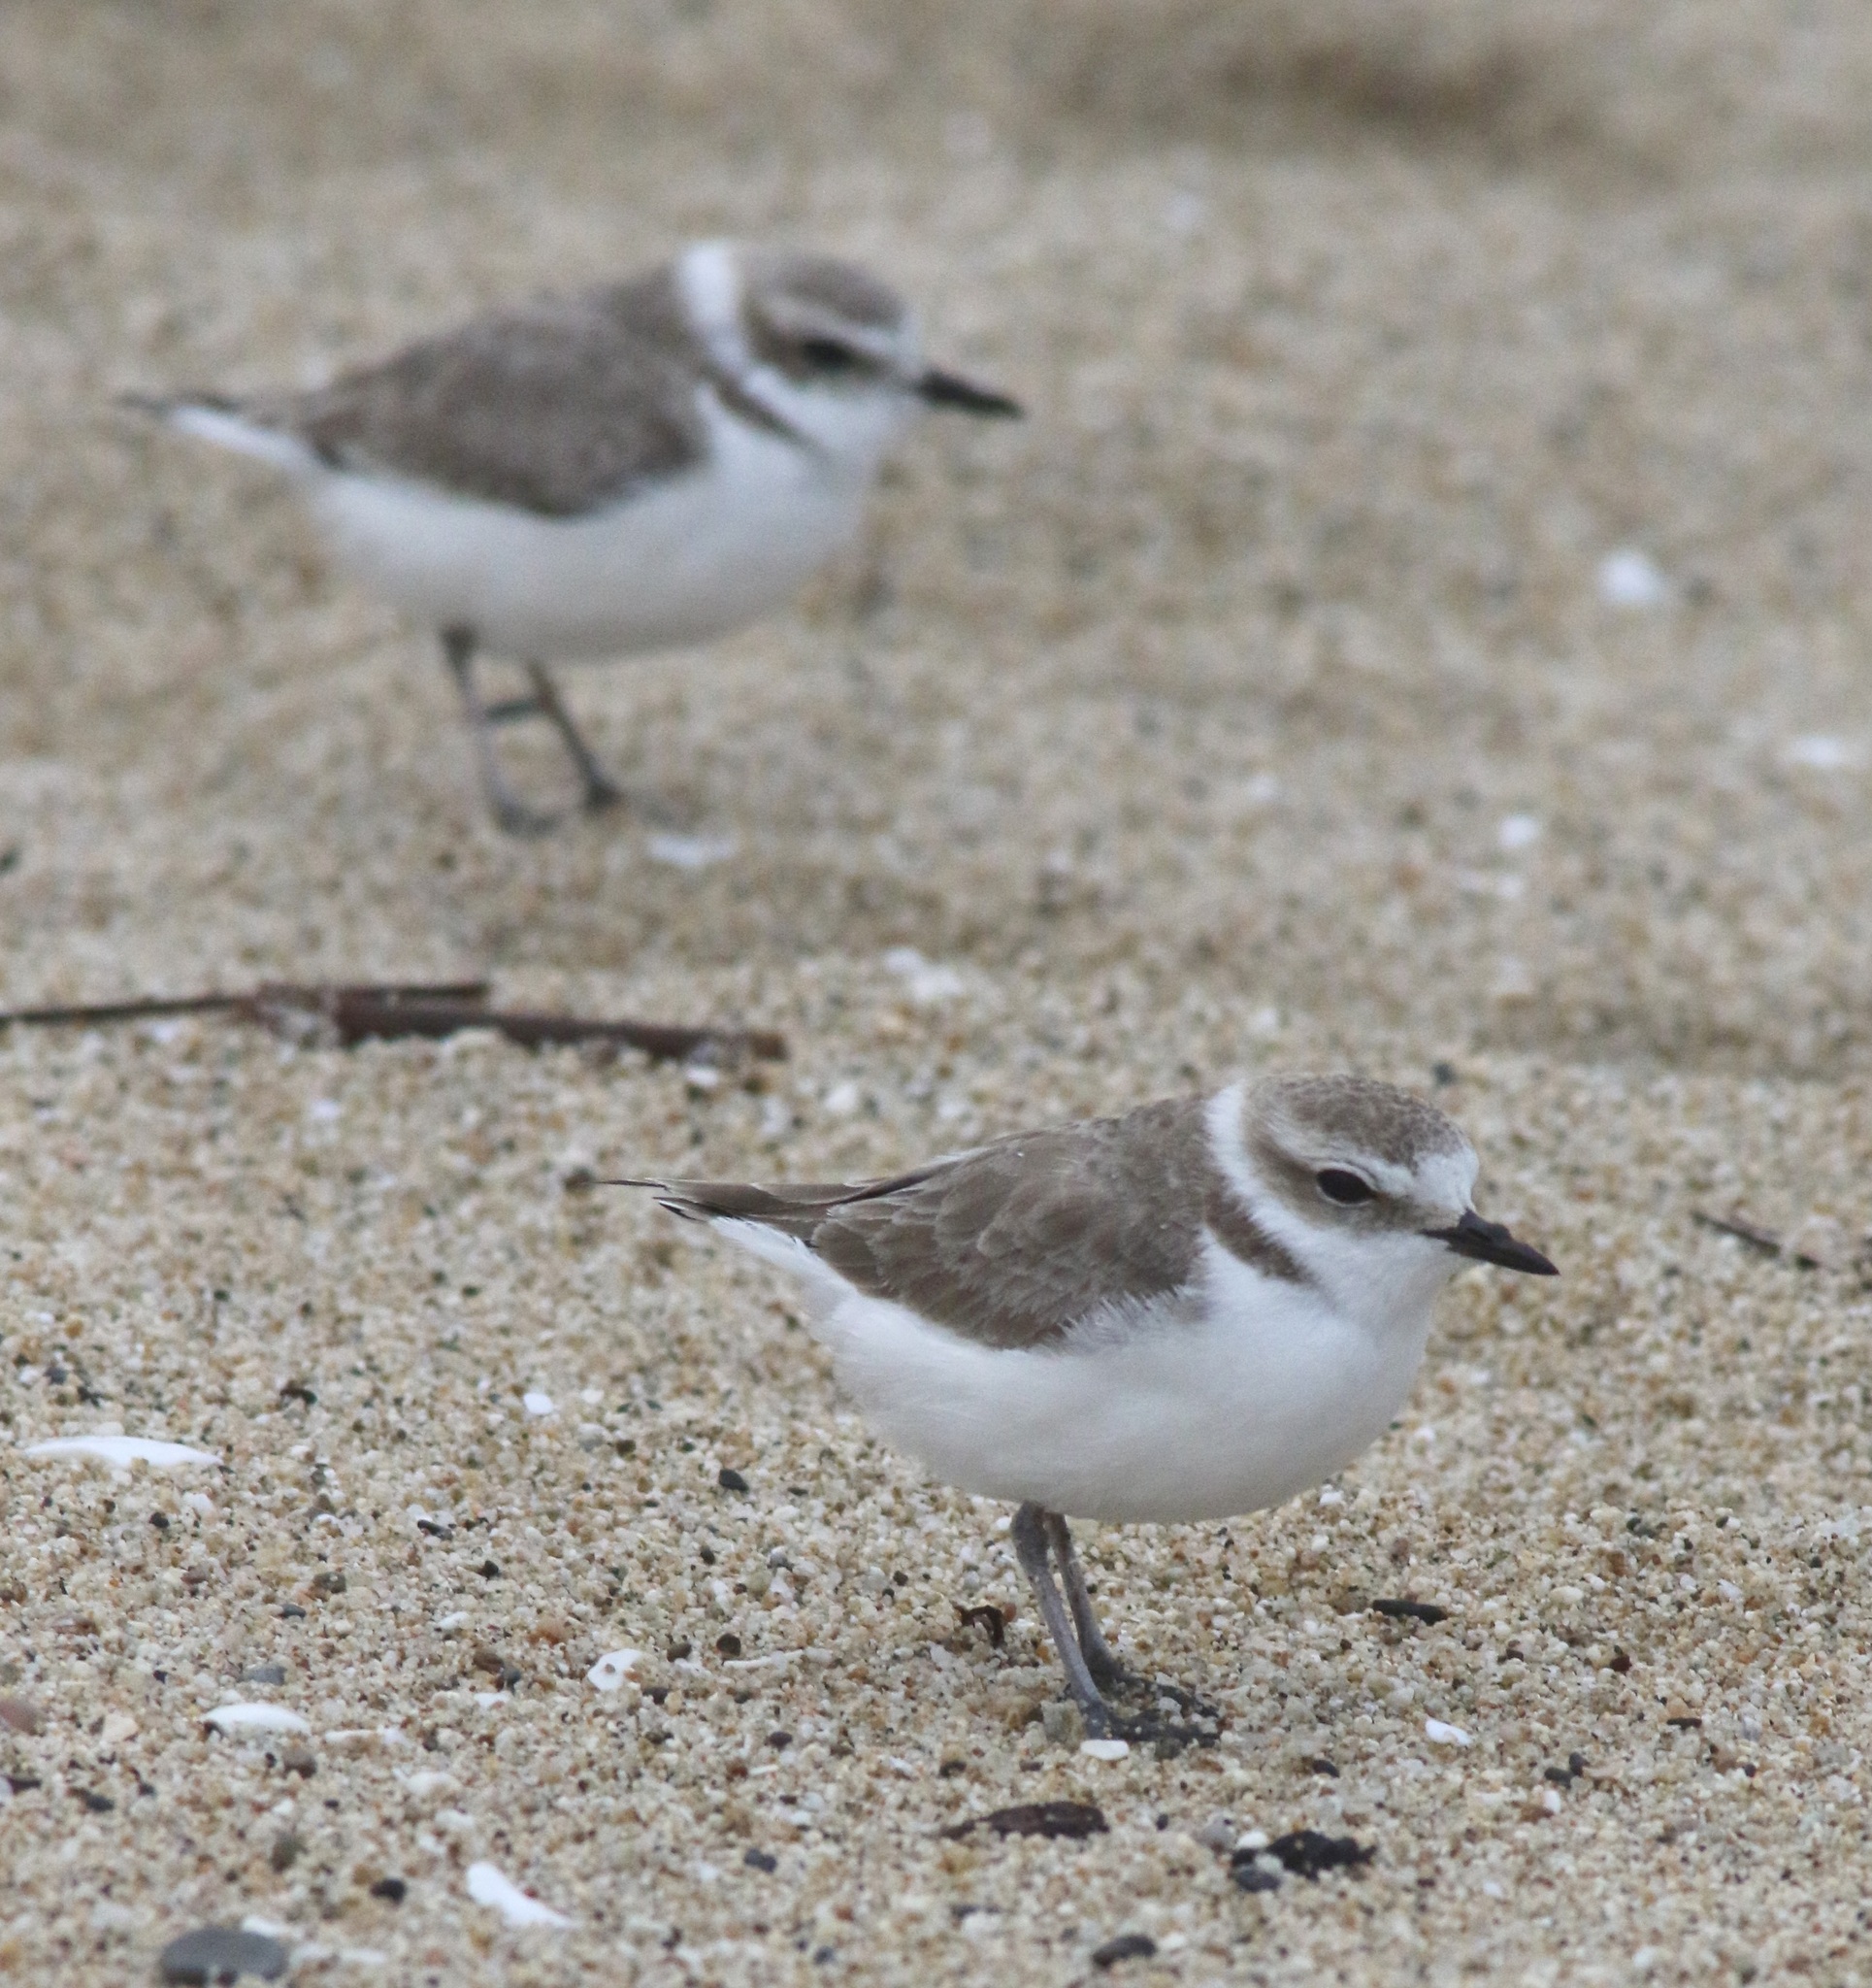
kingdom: Animalia
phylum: Chordata
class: Aves
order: Charadriiformes
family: Charadriidae
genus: Anarhynchus
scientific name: Anarhynchus
